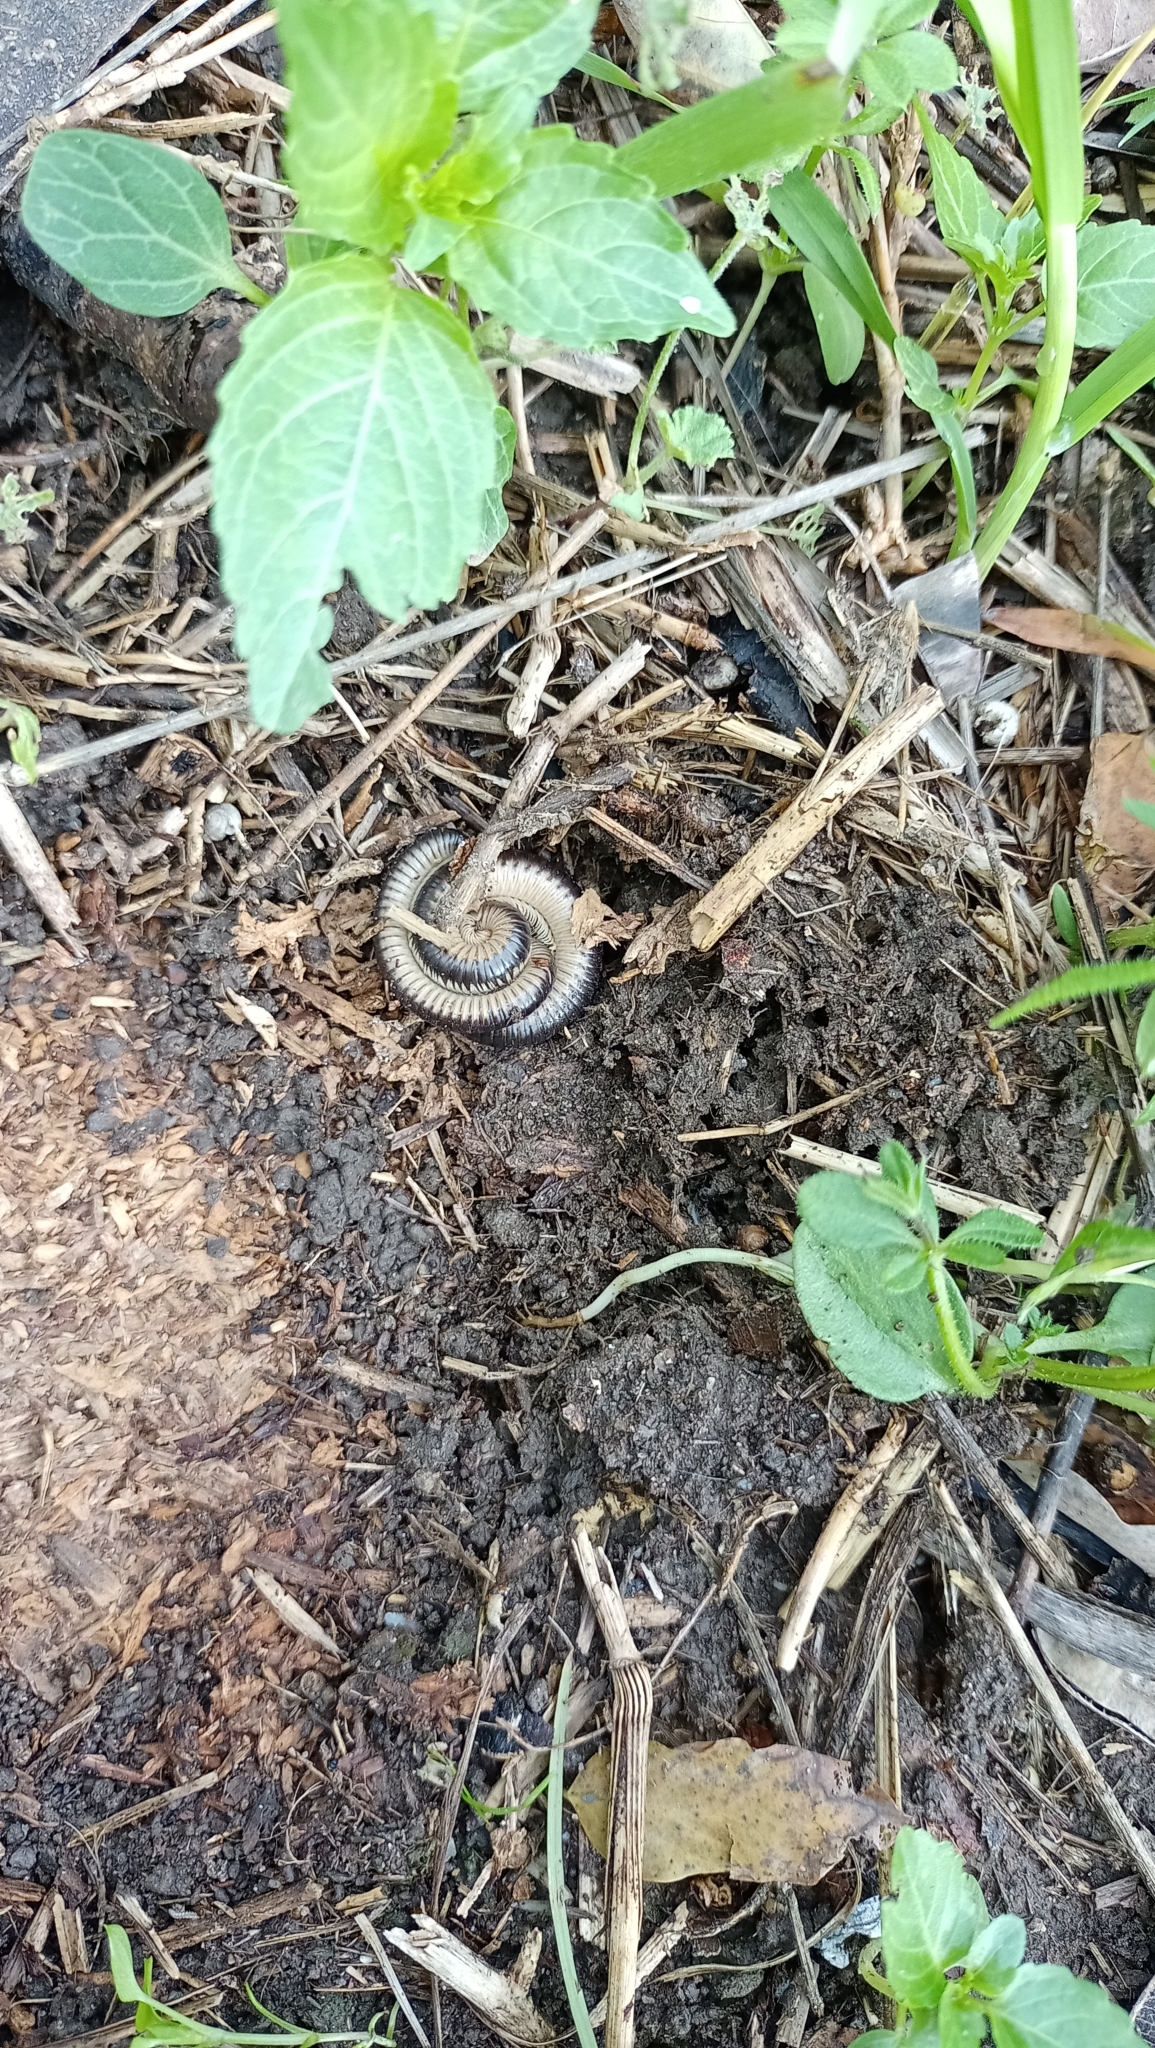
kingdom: Animalia
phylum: Arthropoda
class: Diplopoda
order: Julida
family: Julidae
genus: Pachyiulus
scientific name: Pachyiulus flavipes
